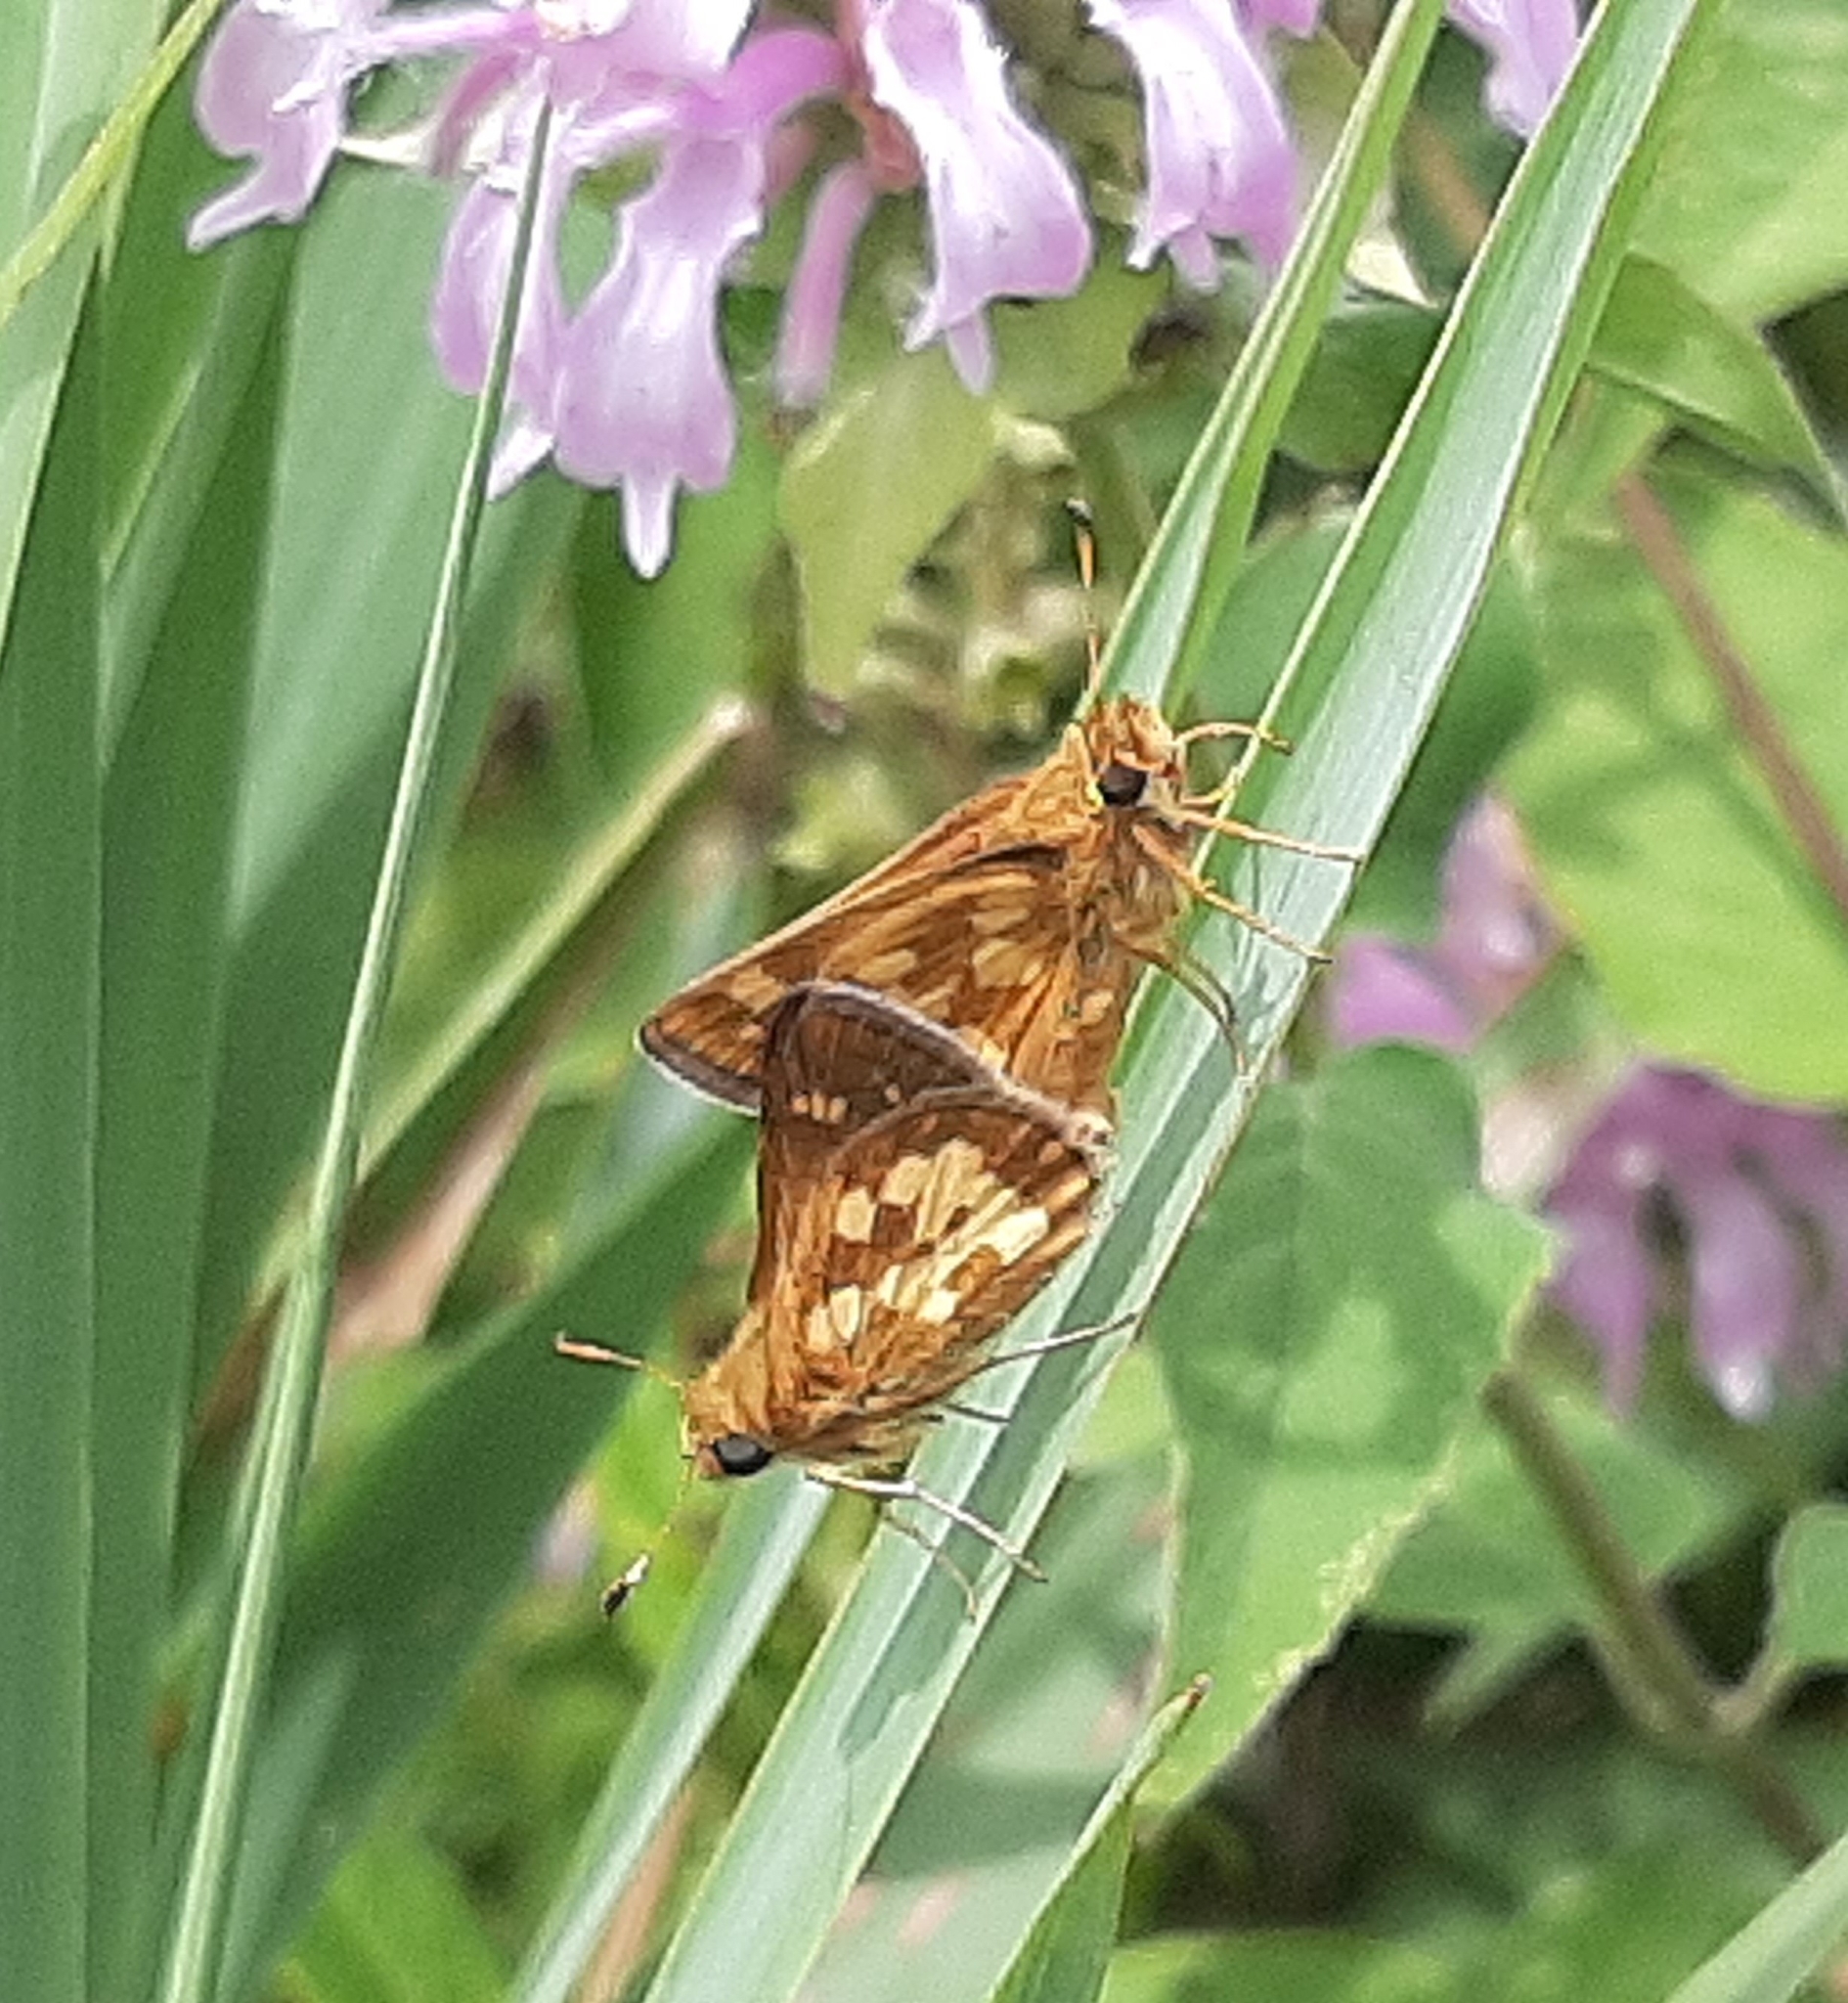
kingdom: Animalia
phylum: Arthropoda
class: Insecta
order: Lepidoptera
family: Hesperiidae
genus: Polites
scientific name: Polites coras
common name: Peck's skipper
